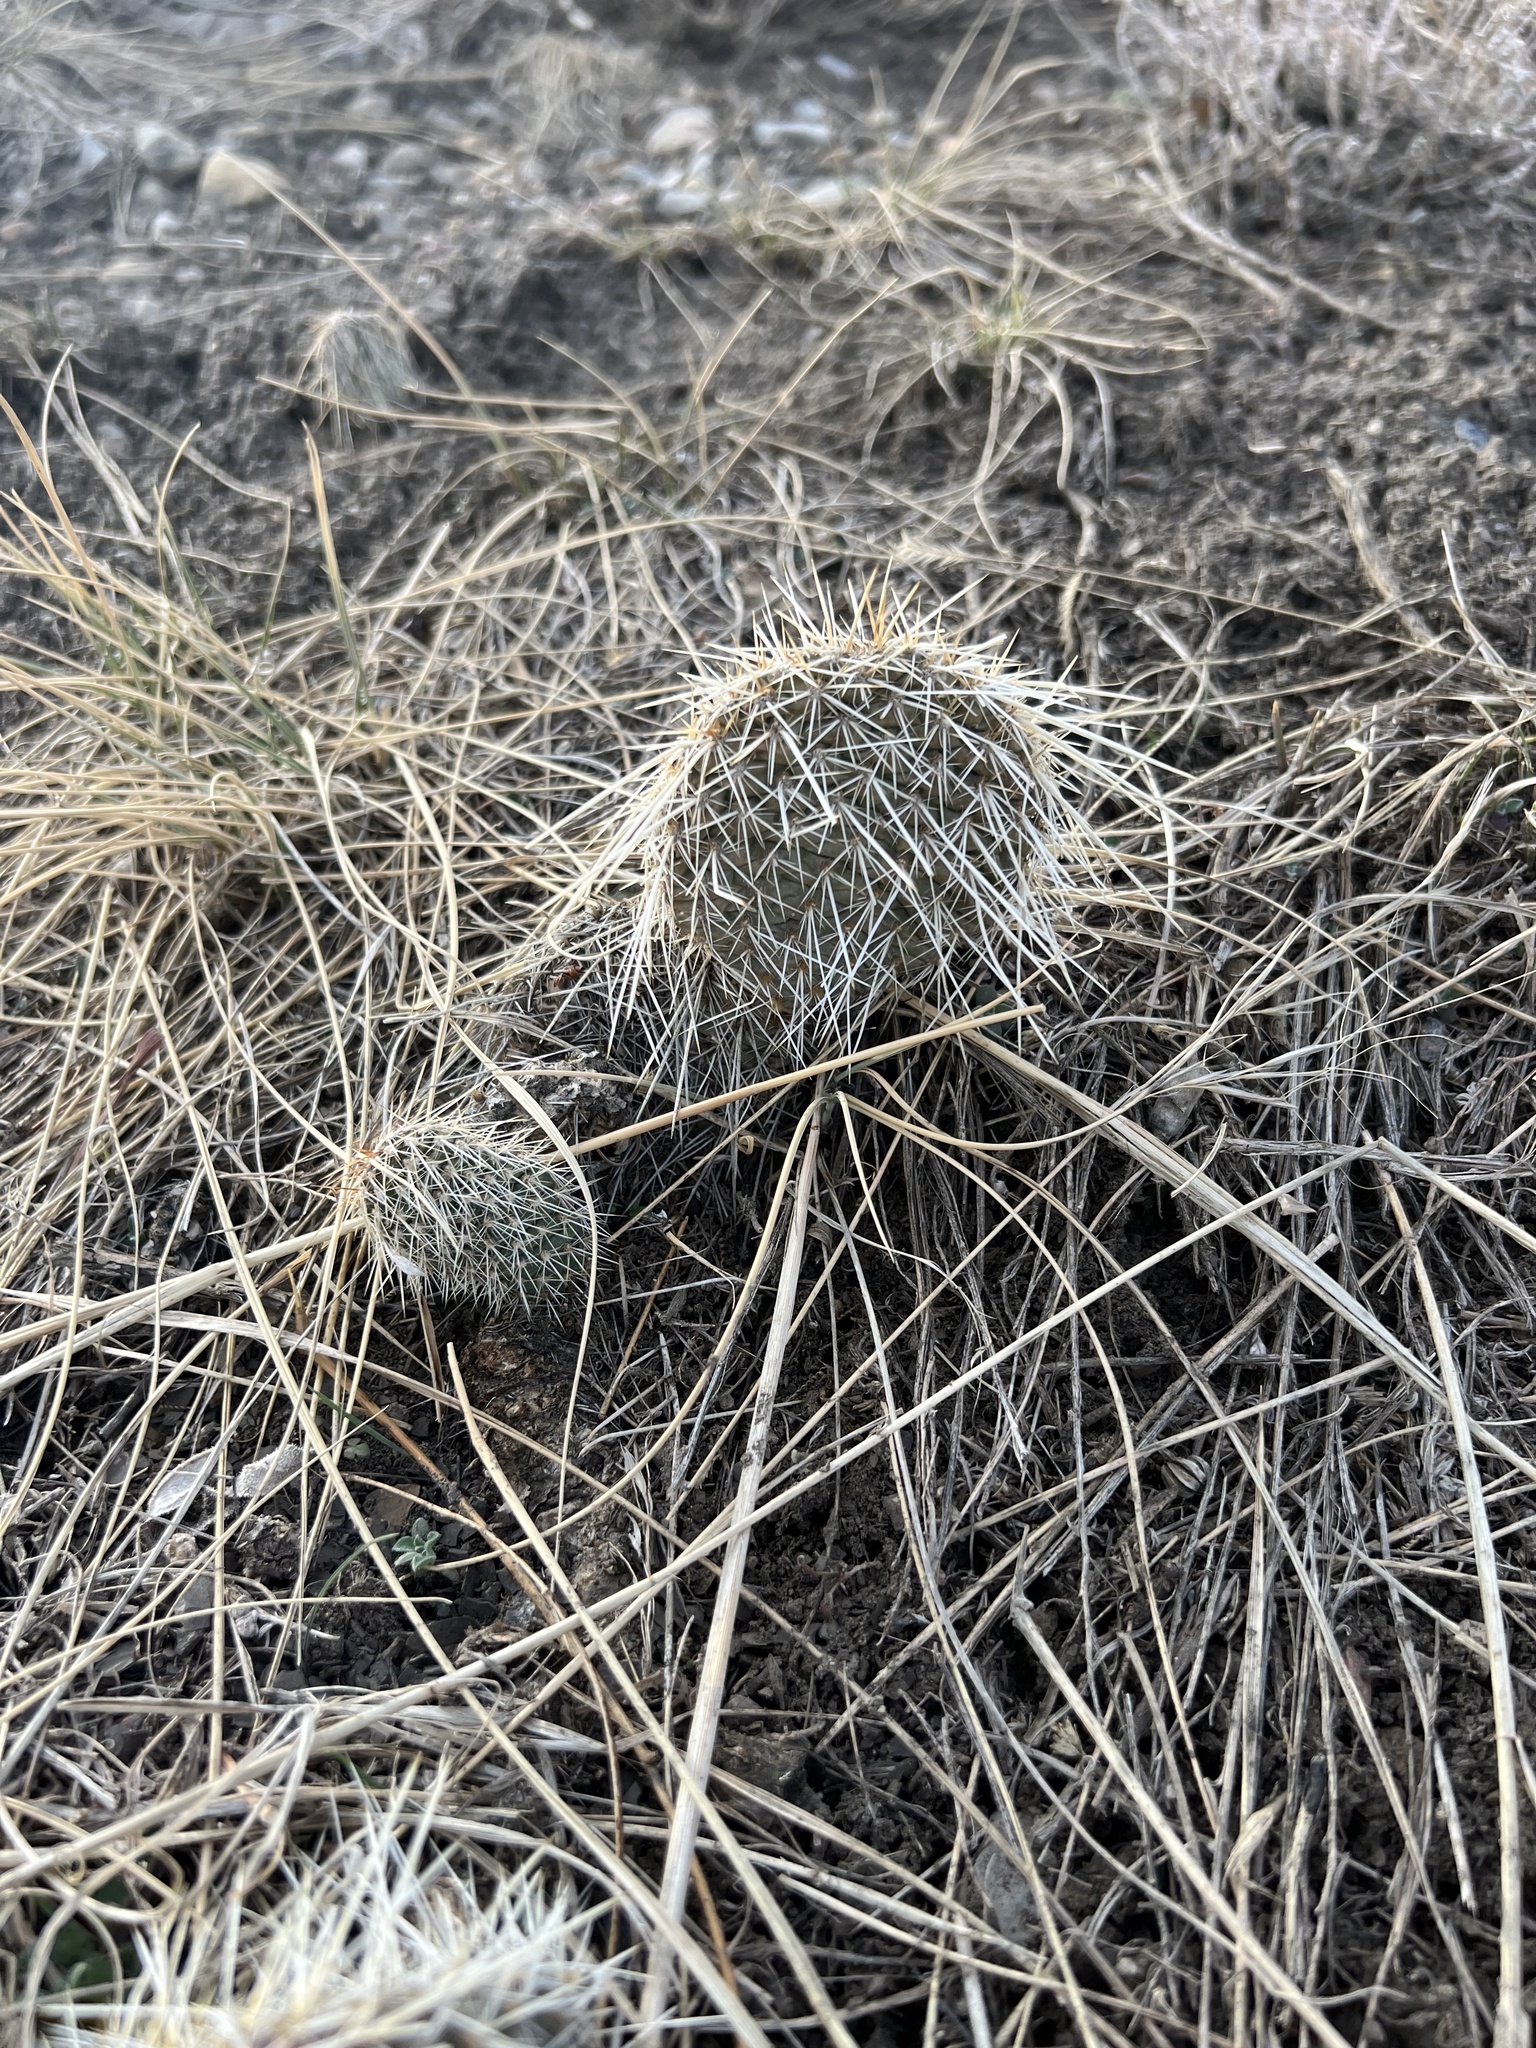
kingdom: Plantae
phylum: Tracheophyta
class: Magnoliopsida
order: Caryophyllales
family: Cactaceae
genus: Opuntia
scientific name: Opuntia polyacantha
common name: Plains prickly-pear
